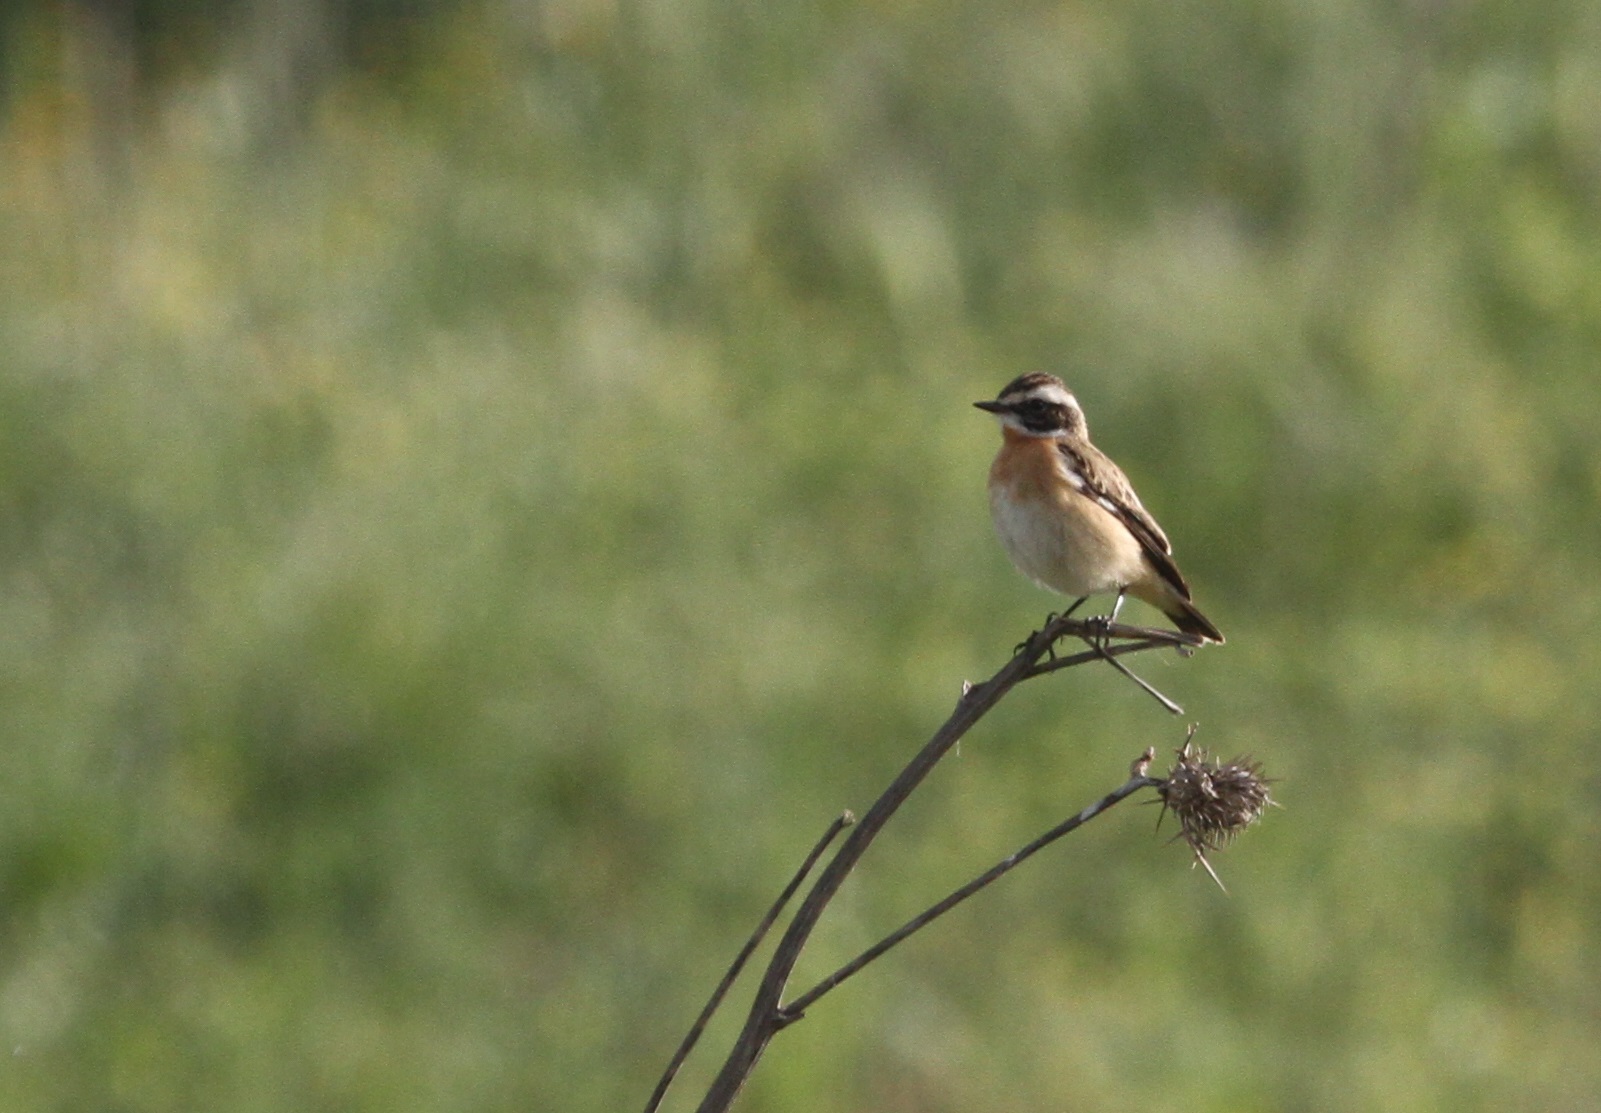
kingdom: Animalia
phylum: Chordata
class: Aves
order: Passeriformes
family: Muscicapidae
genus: Saxicola
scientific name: Saxicola rubetra
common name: Whinchat
